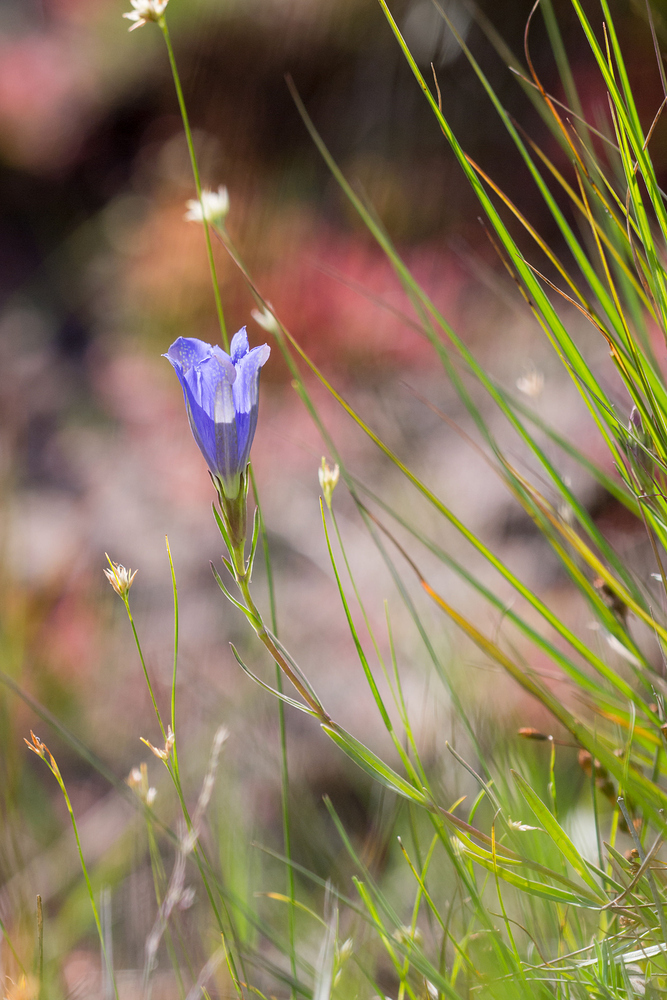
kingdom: Plantae
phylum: Tracheophyta
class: Magnoliopsida
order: Gentianales
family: Gentianaceae
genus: Gentiana
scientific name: Gentiana pneumonanthe
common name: Marsh gentian
